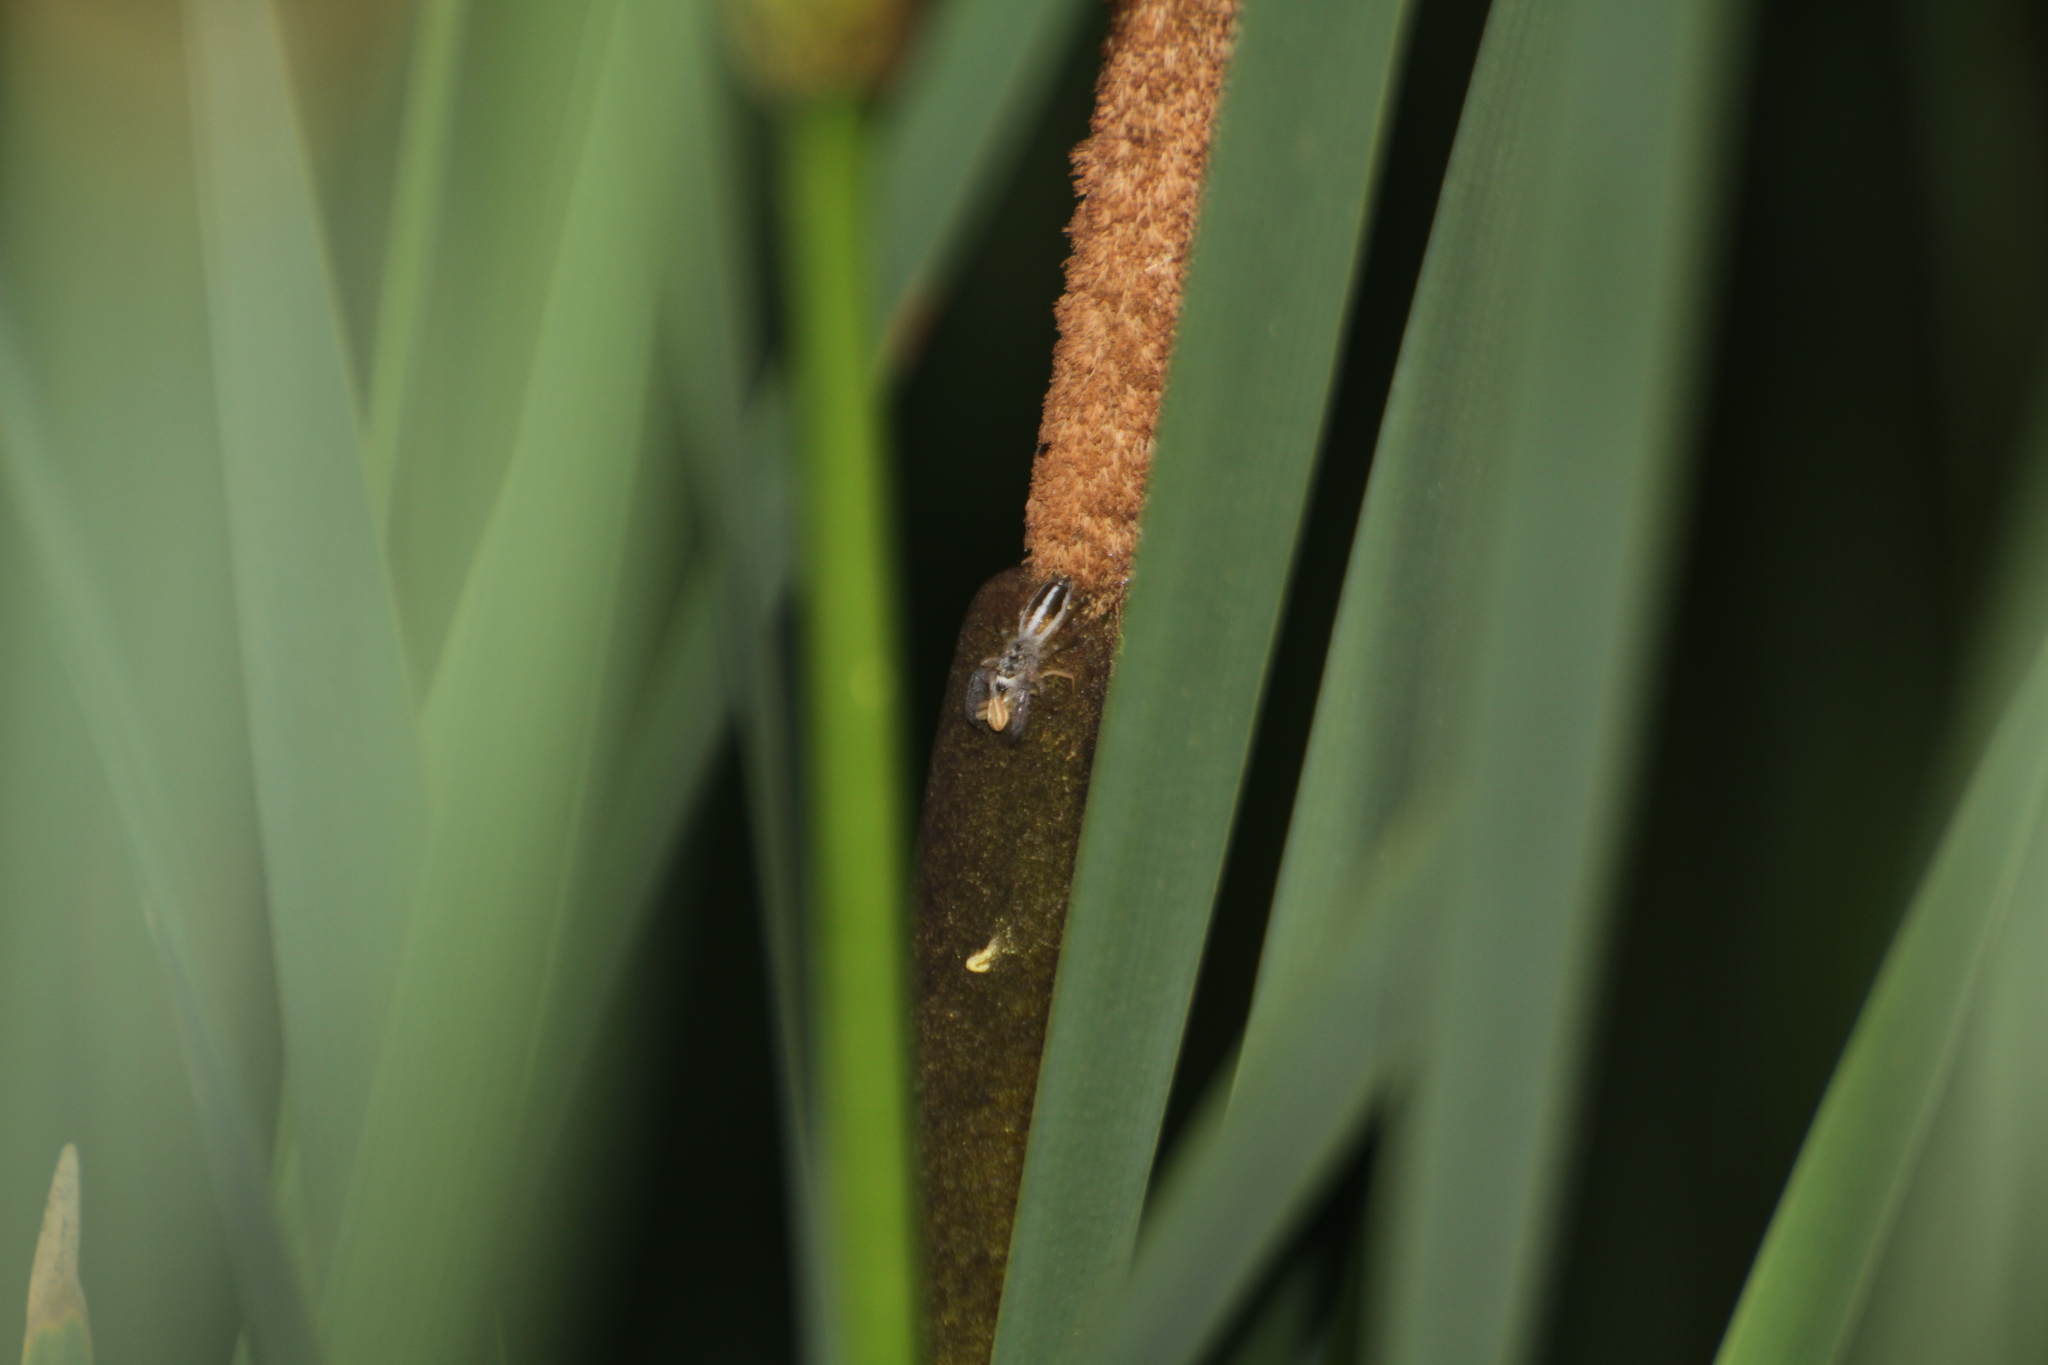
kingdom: Animalia
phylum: Arthropoda
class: Arachnida
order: Araneae
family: Salticidae
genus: Mendoza
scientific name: Mendoza canestrinii
